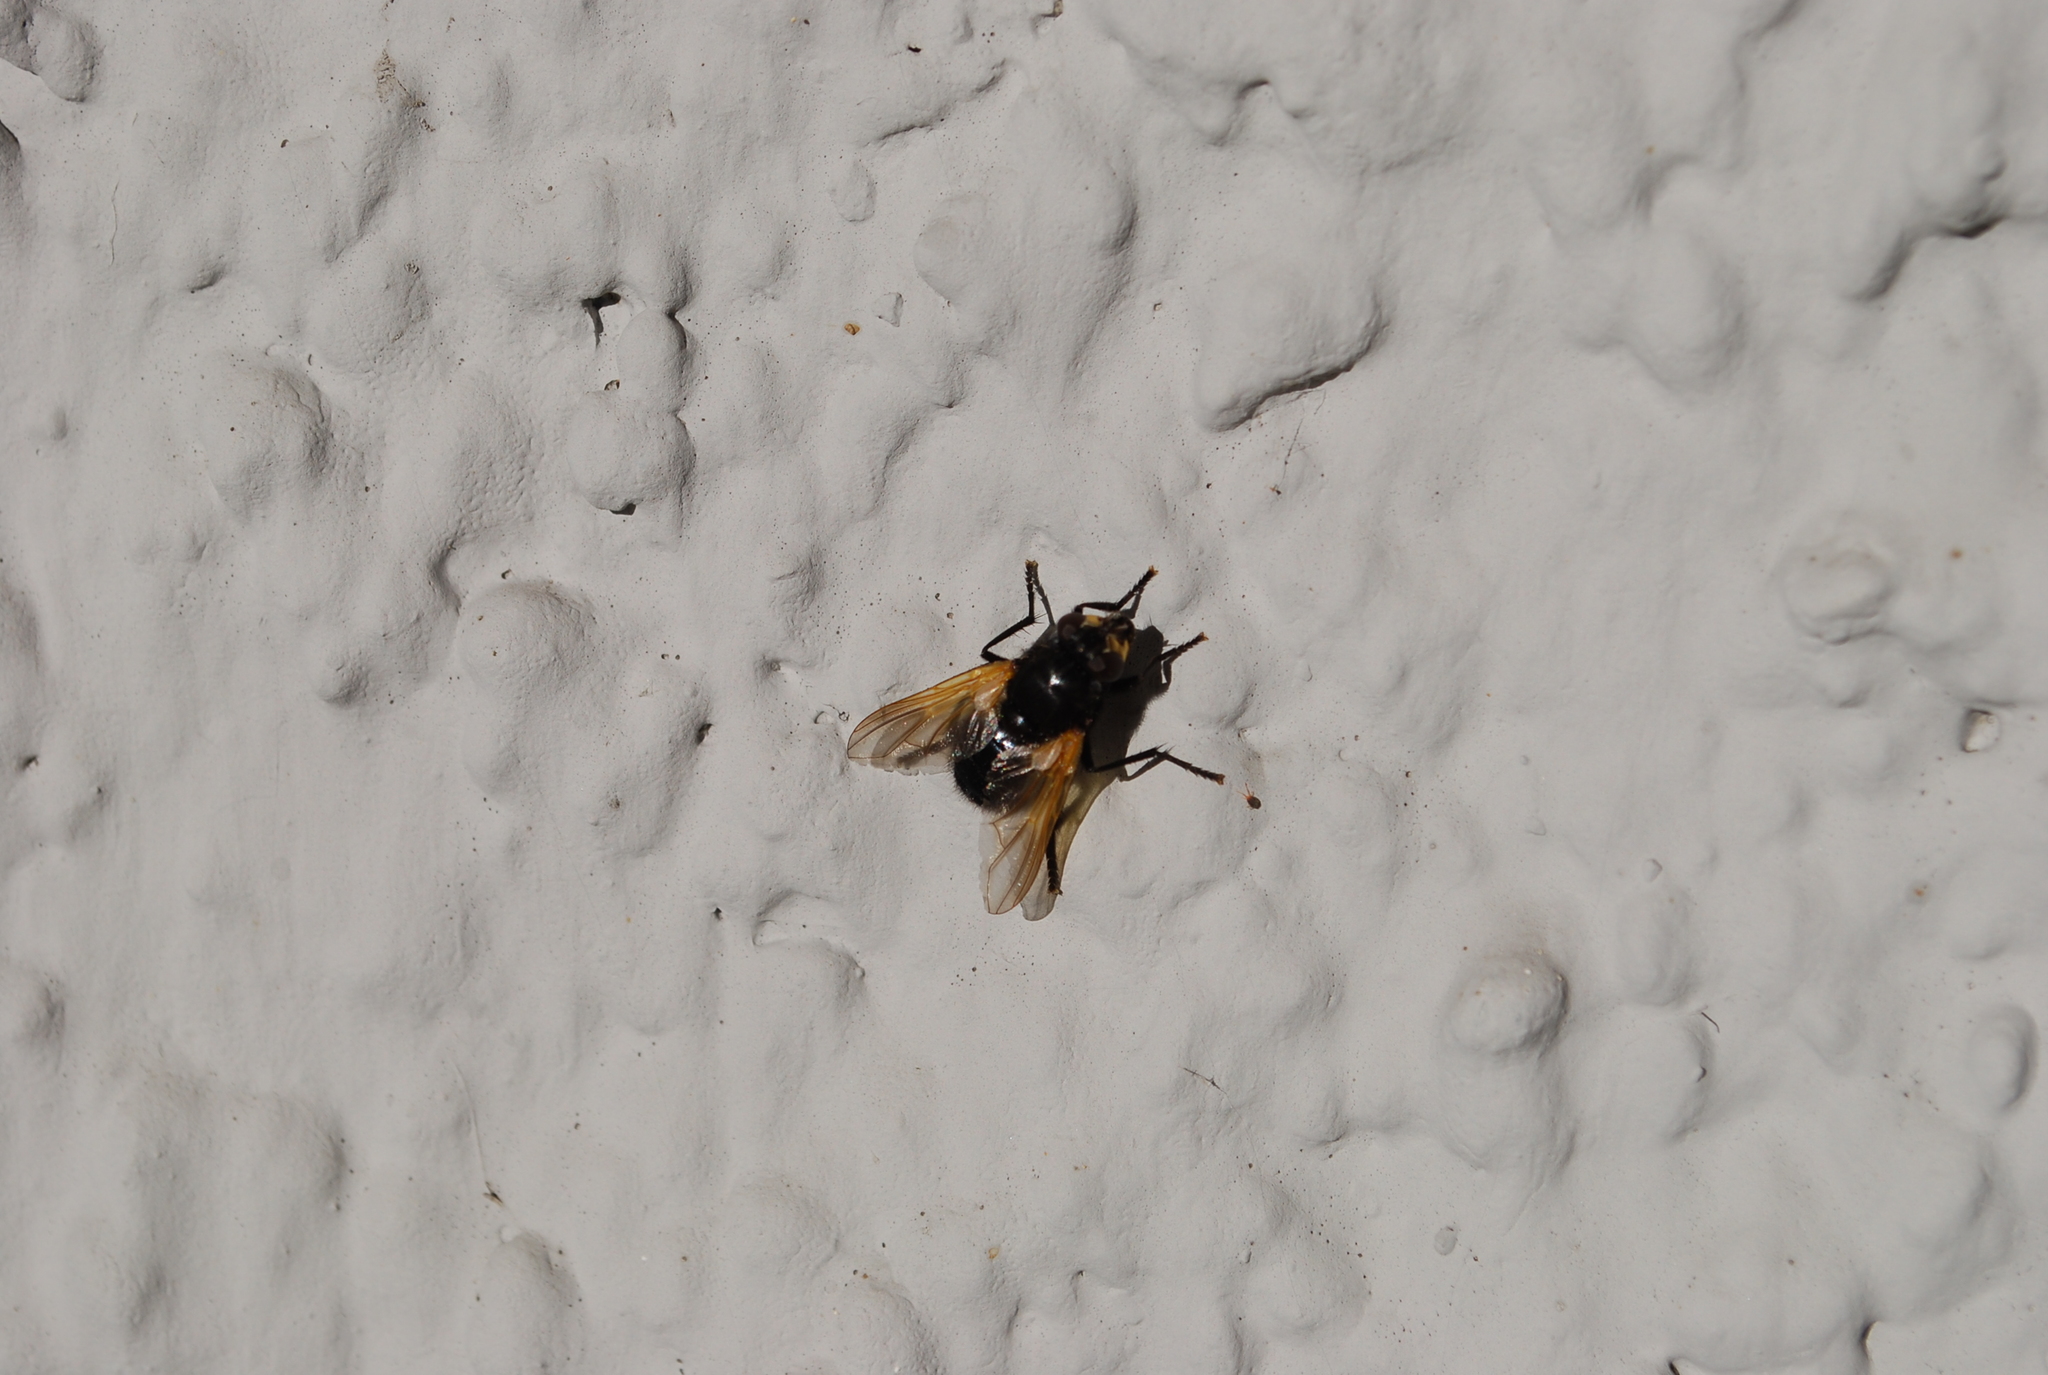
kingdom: Animalia
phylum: Arthropoda
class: Insecta
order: Diptera
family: Muscidae
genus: Mesembrina
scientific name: Mesembrina meridiana
